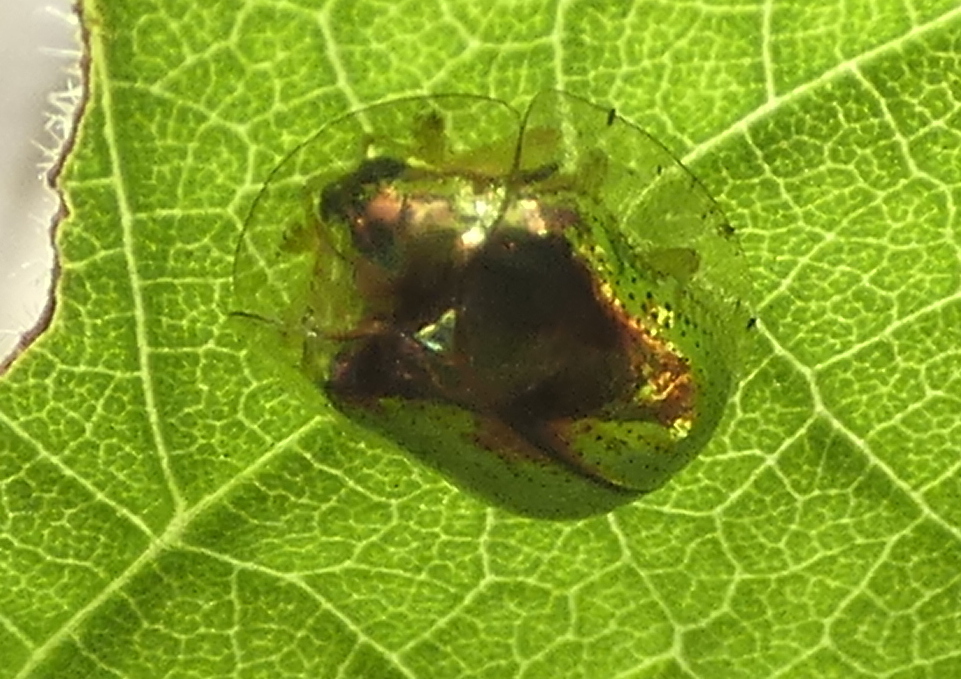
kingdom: Animalia
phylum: Arthropoda
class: Insecta
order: Coleoptera
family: Chrysomelidae
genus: Charidotella
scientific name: Charidotella zona
